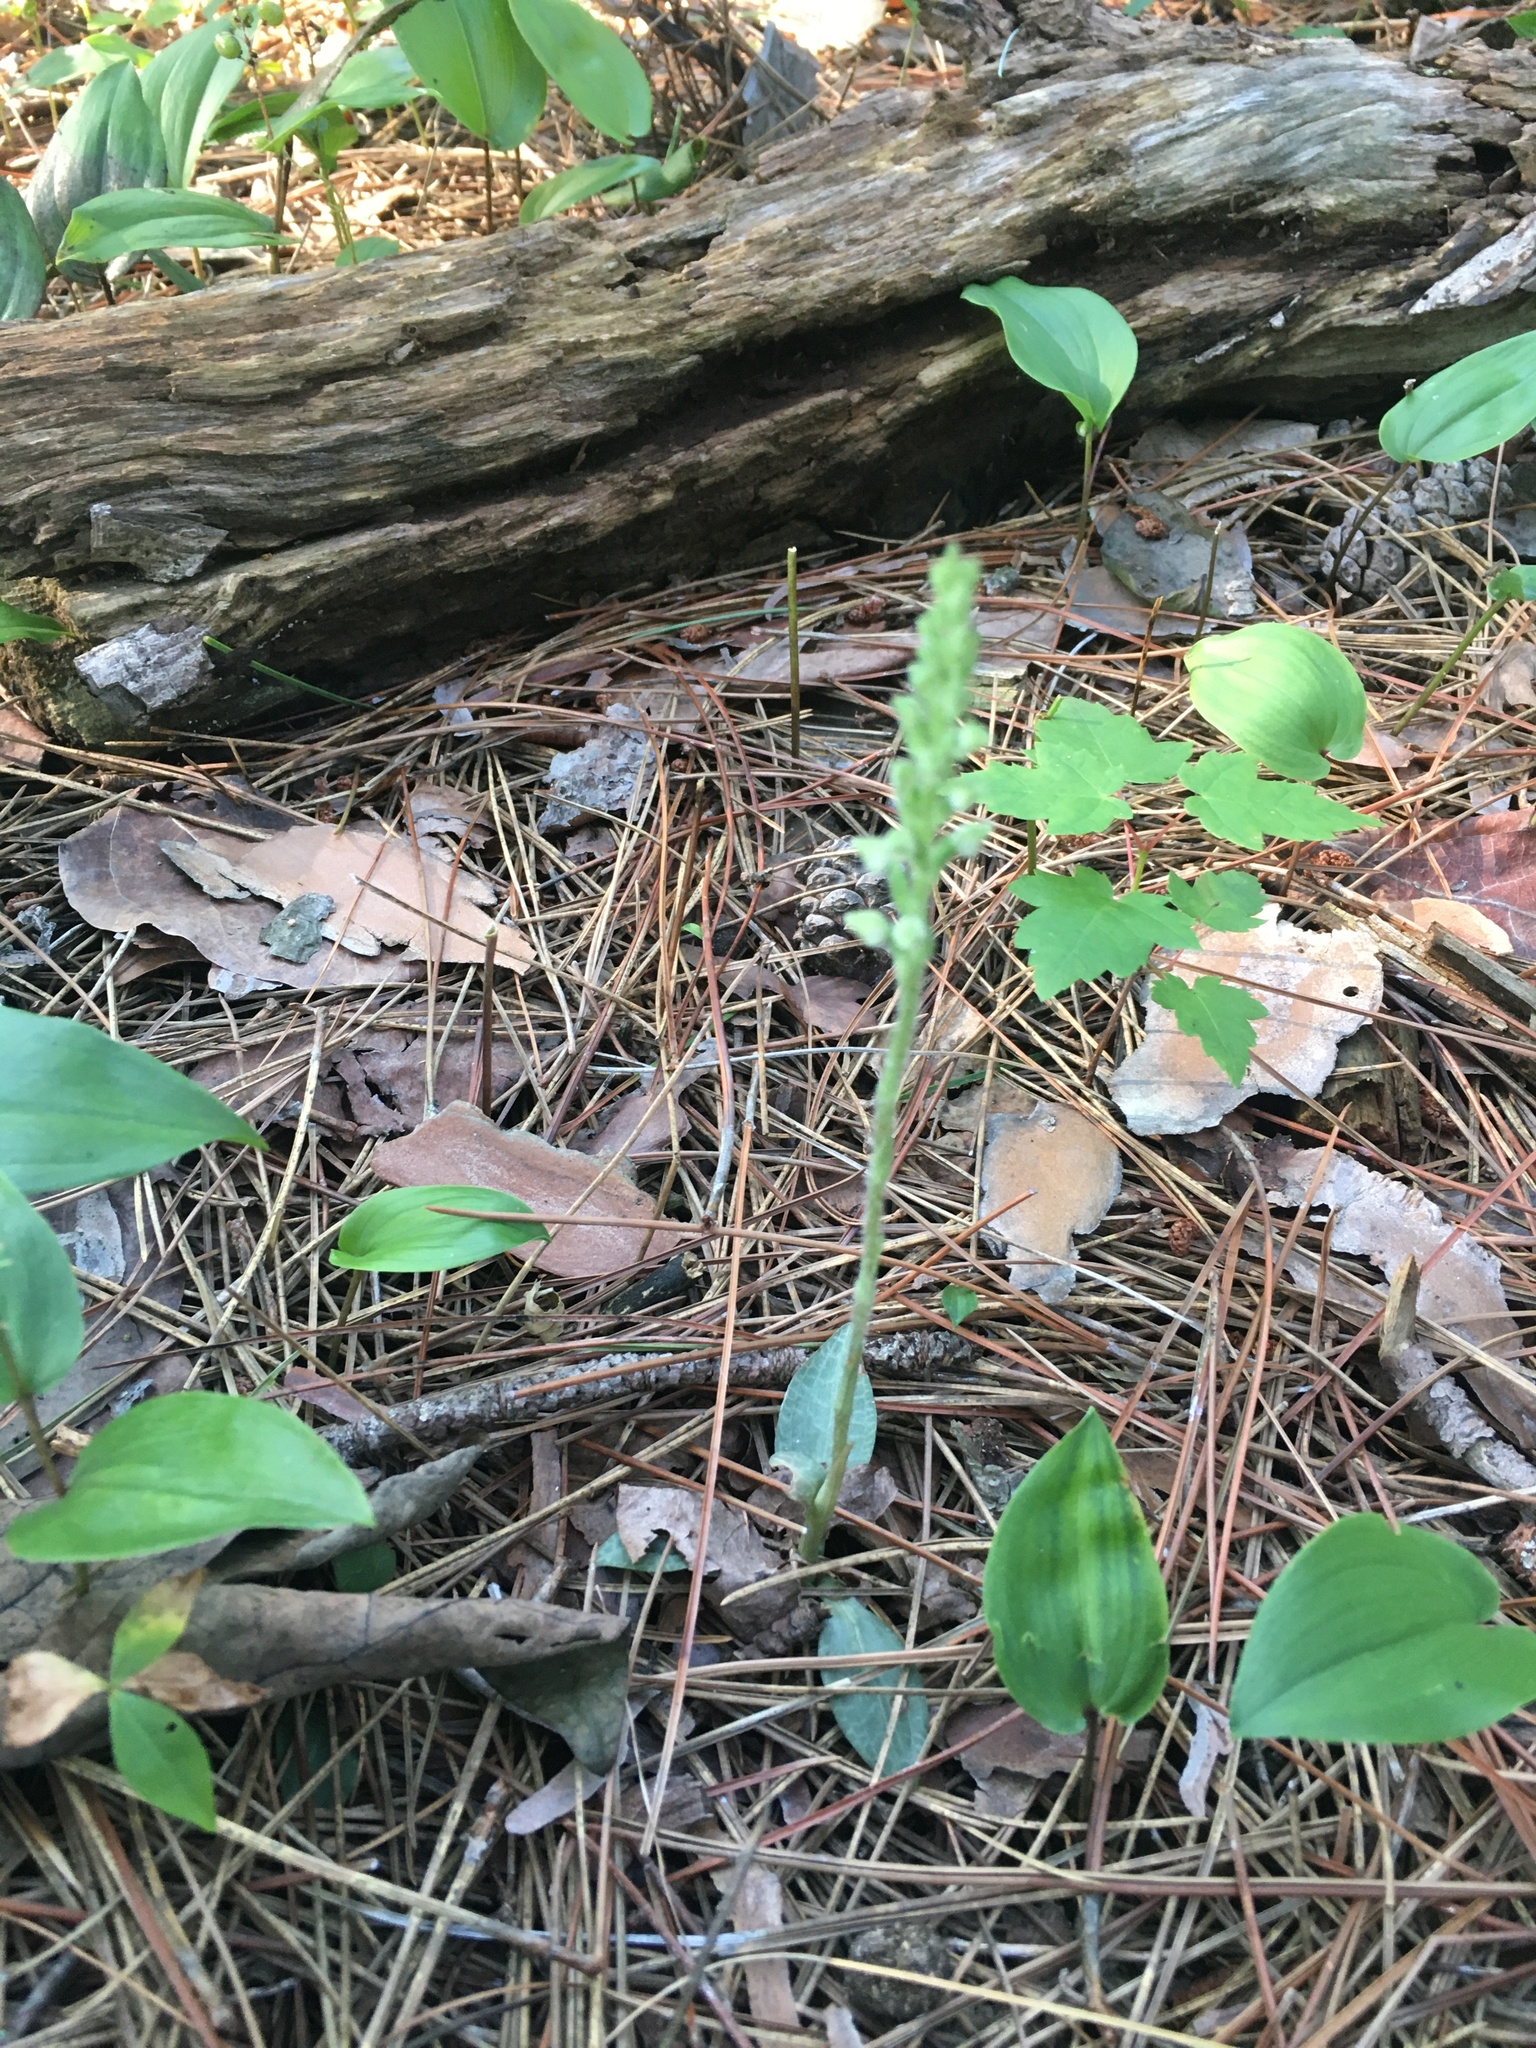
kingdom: Plantae
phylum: Tracheophyta
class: Liliopsida
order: Asparagales
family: Orchidaceae
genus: Goodyera
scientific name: Goodyera tesselata
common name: Checkered rattlesnake-plantain
